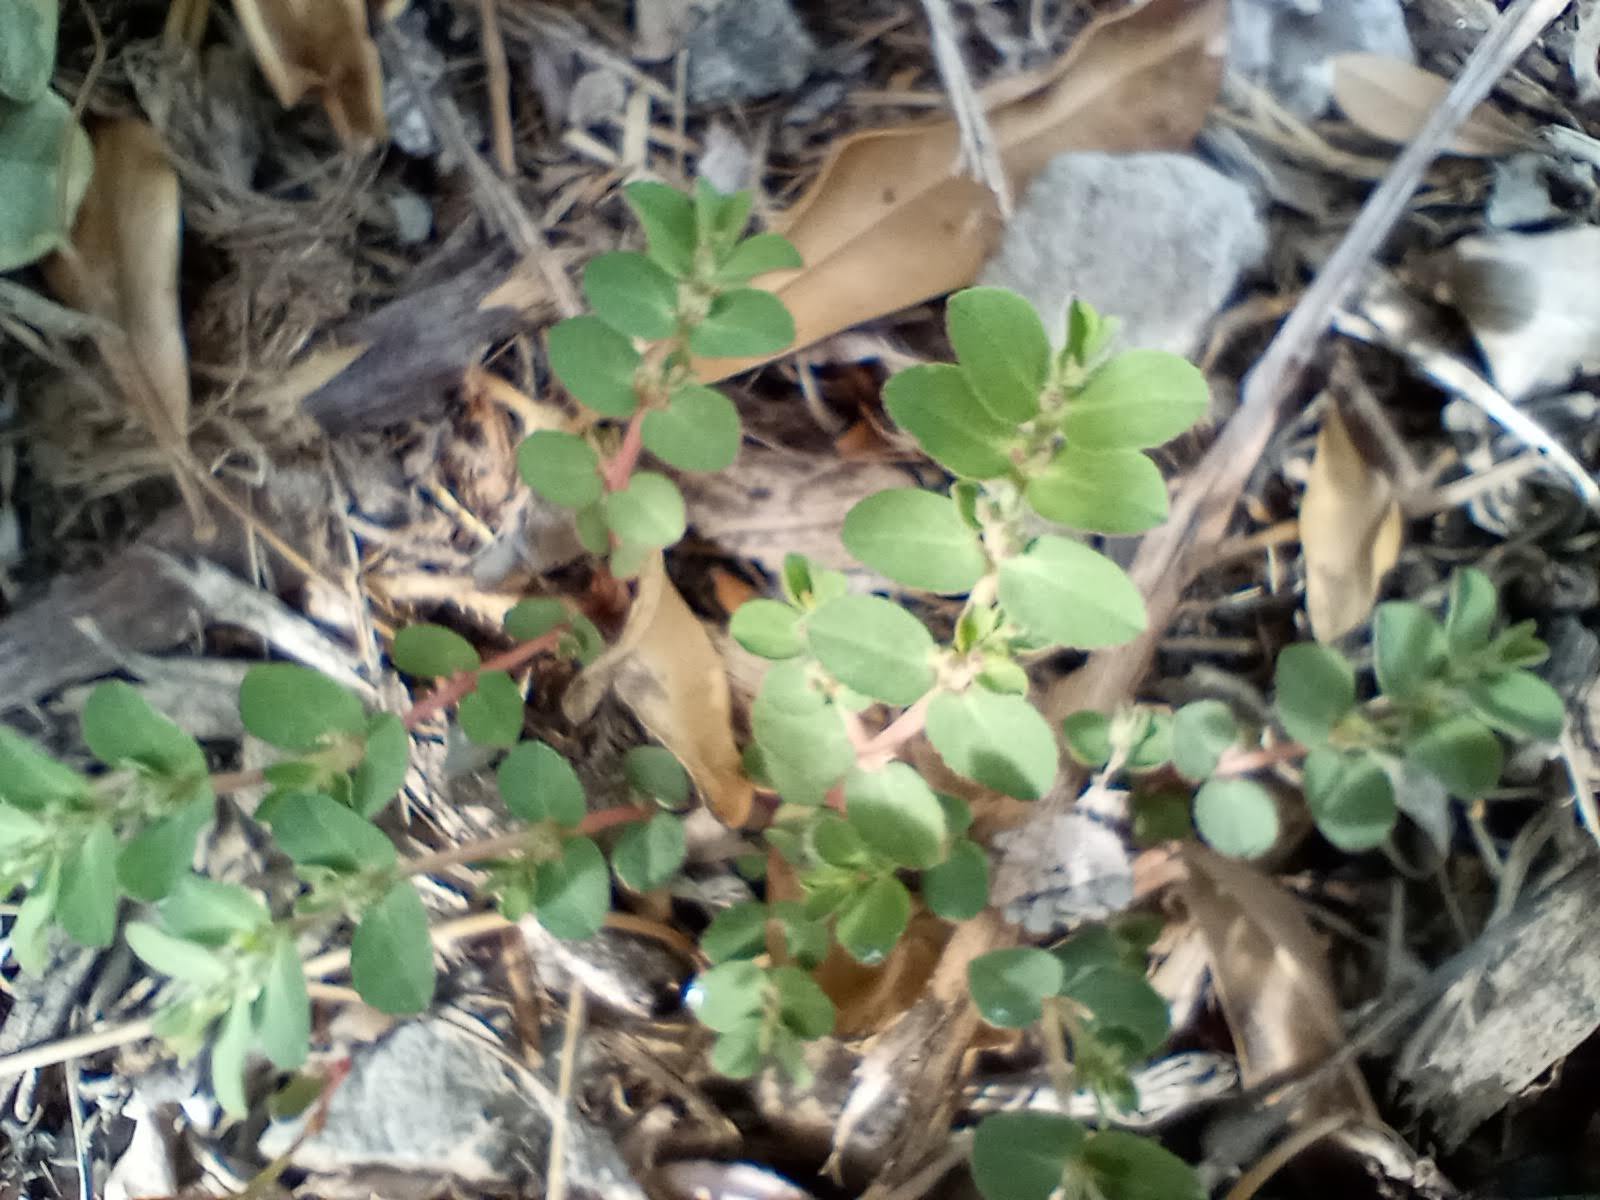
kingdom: Plantae
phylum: Tracheophyta
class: Magnoliopsida
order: Malpighiales
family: Euphorbiaceae
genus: Euphorbia
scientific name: Euphorbia prostrata
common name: Prostrate sandmat
